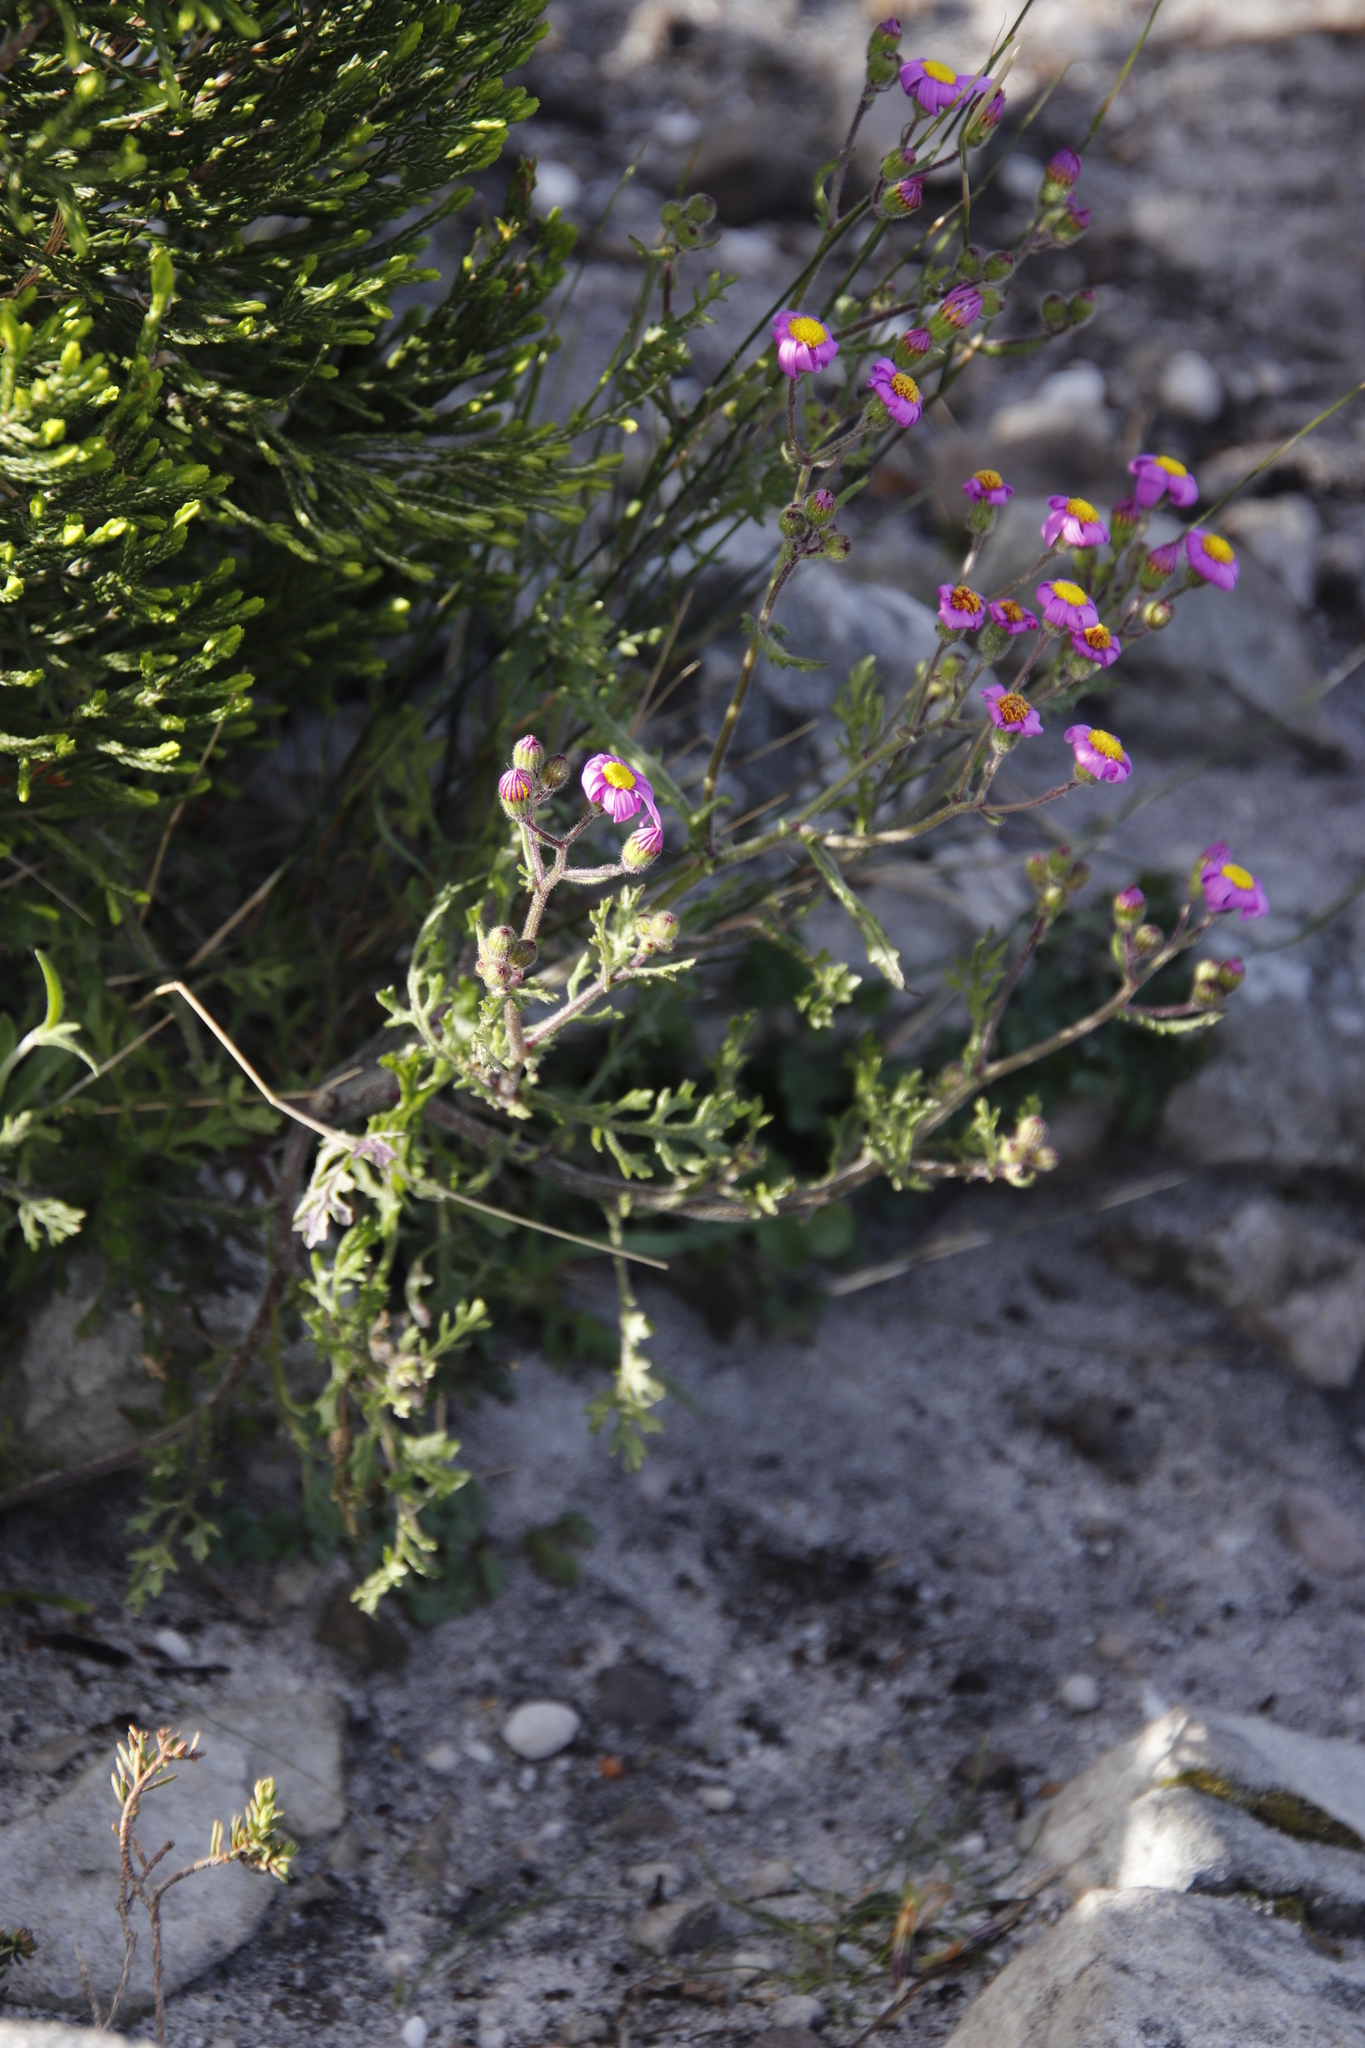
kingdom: Plantae
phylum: Tracheophyta
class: Magnoliopsida
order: Asterales
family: Asteraceae
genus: Senecio
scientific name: Senecio arenarius
